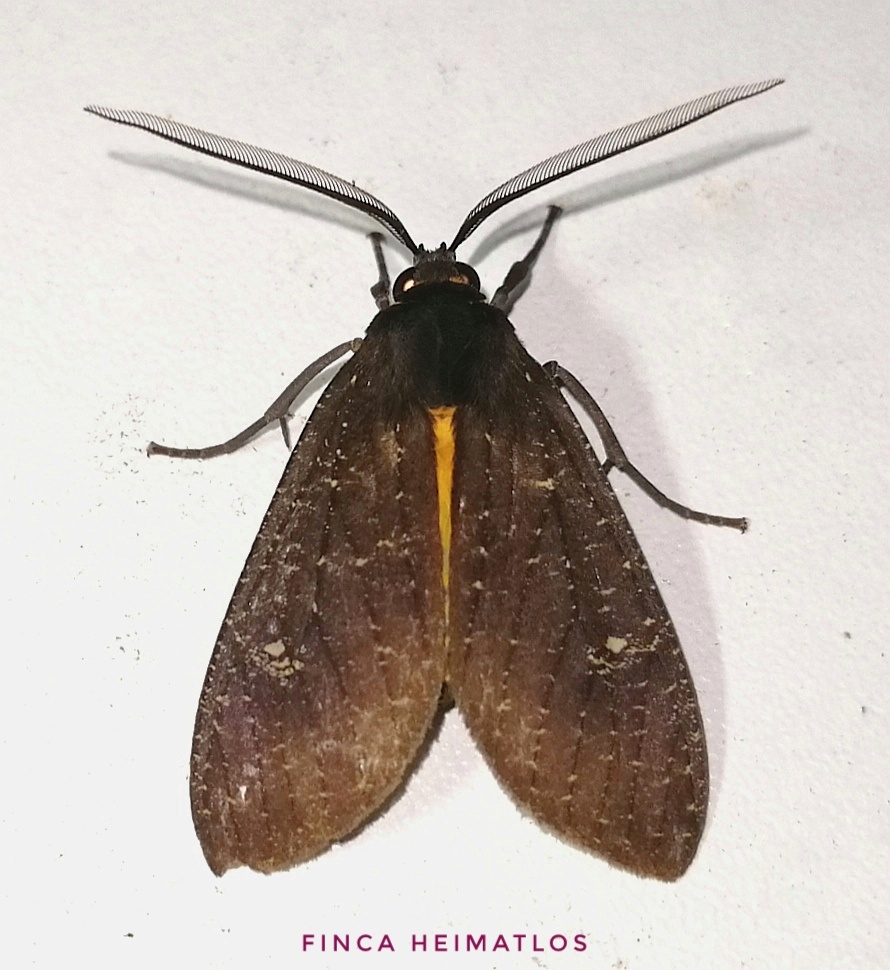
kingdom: Animalia
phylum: Arthropoda
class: Insecta
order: Lepidoptera
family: Erebidae
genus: Sychesia
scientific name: Sychesia dryas
